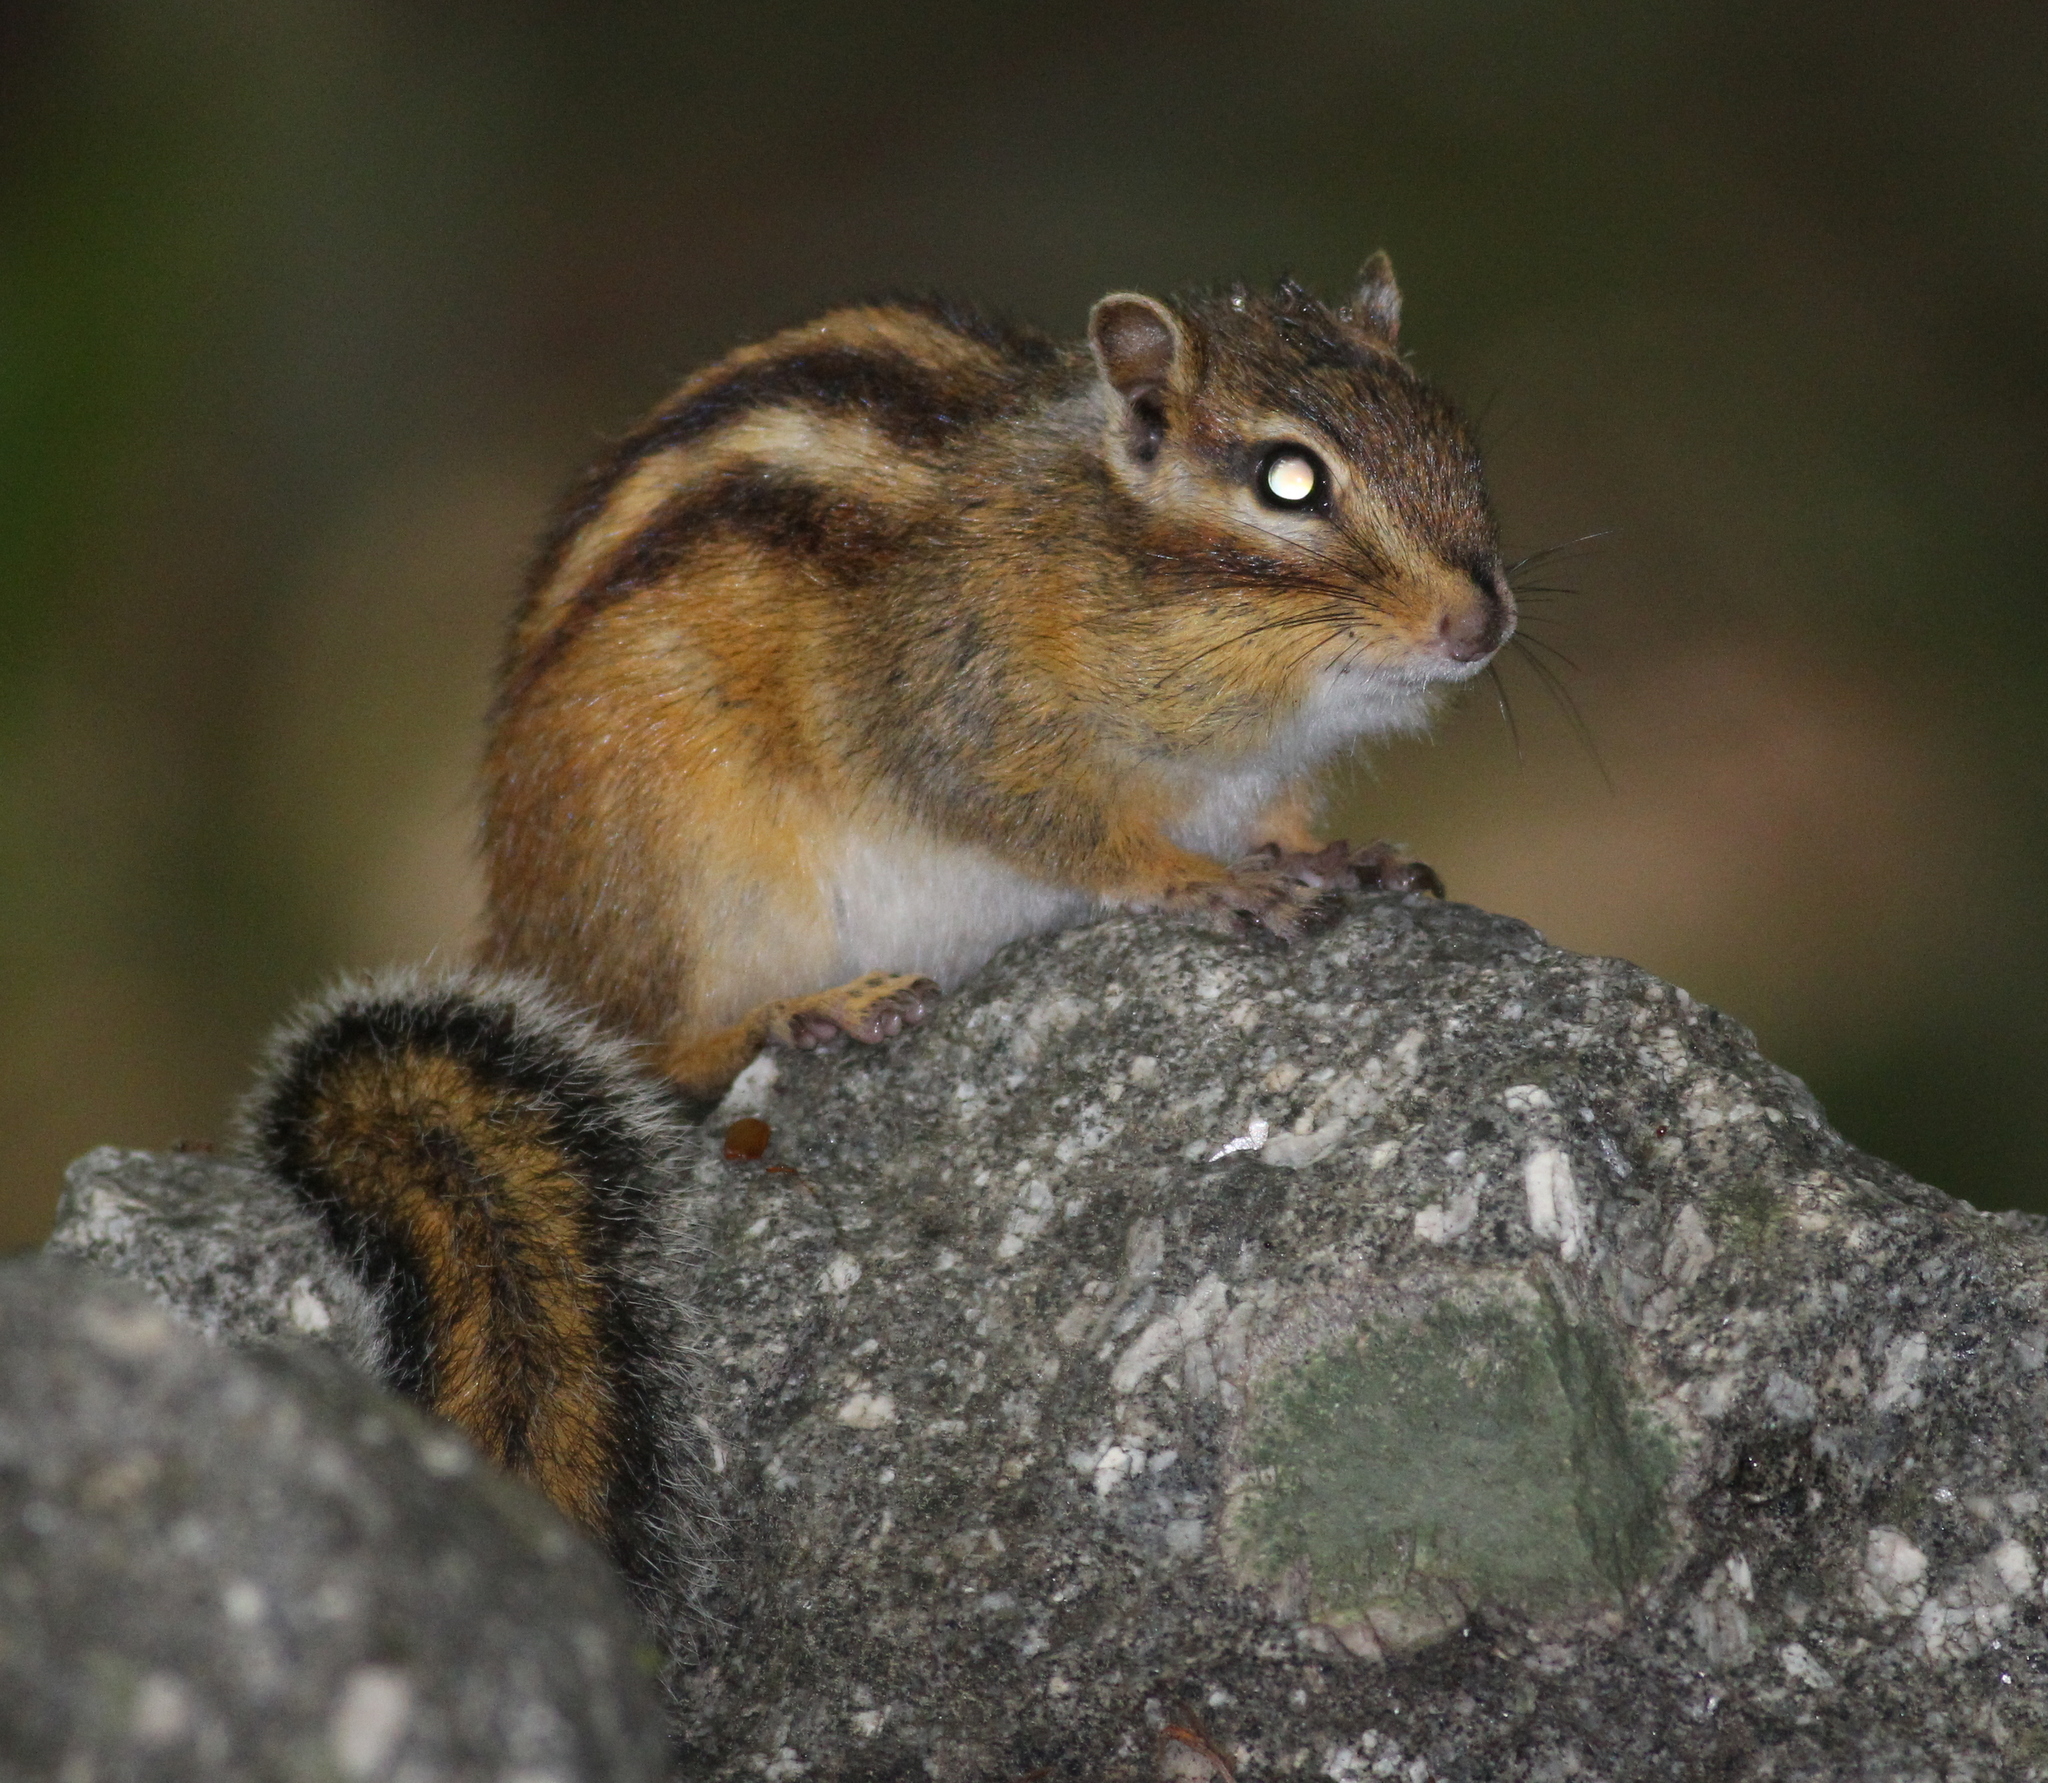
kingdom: Animalia
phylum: Chordata
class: Mammalia
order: Rodentia
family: Sciuridae
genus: Tamias
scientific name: Tamias sibiricus
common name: Siberian chipmunk
